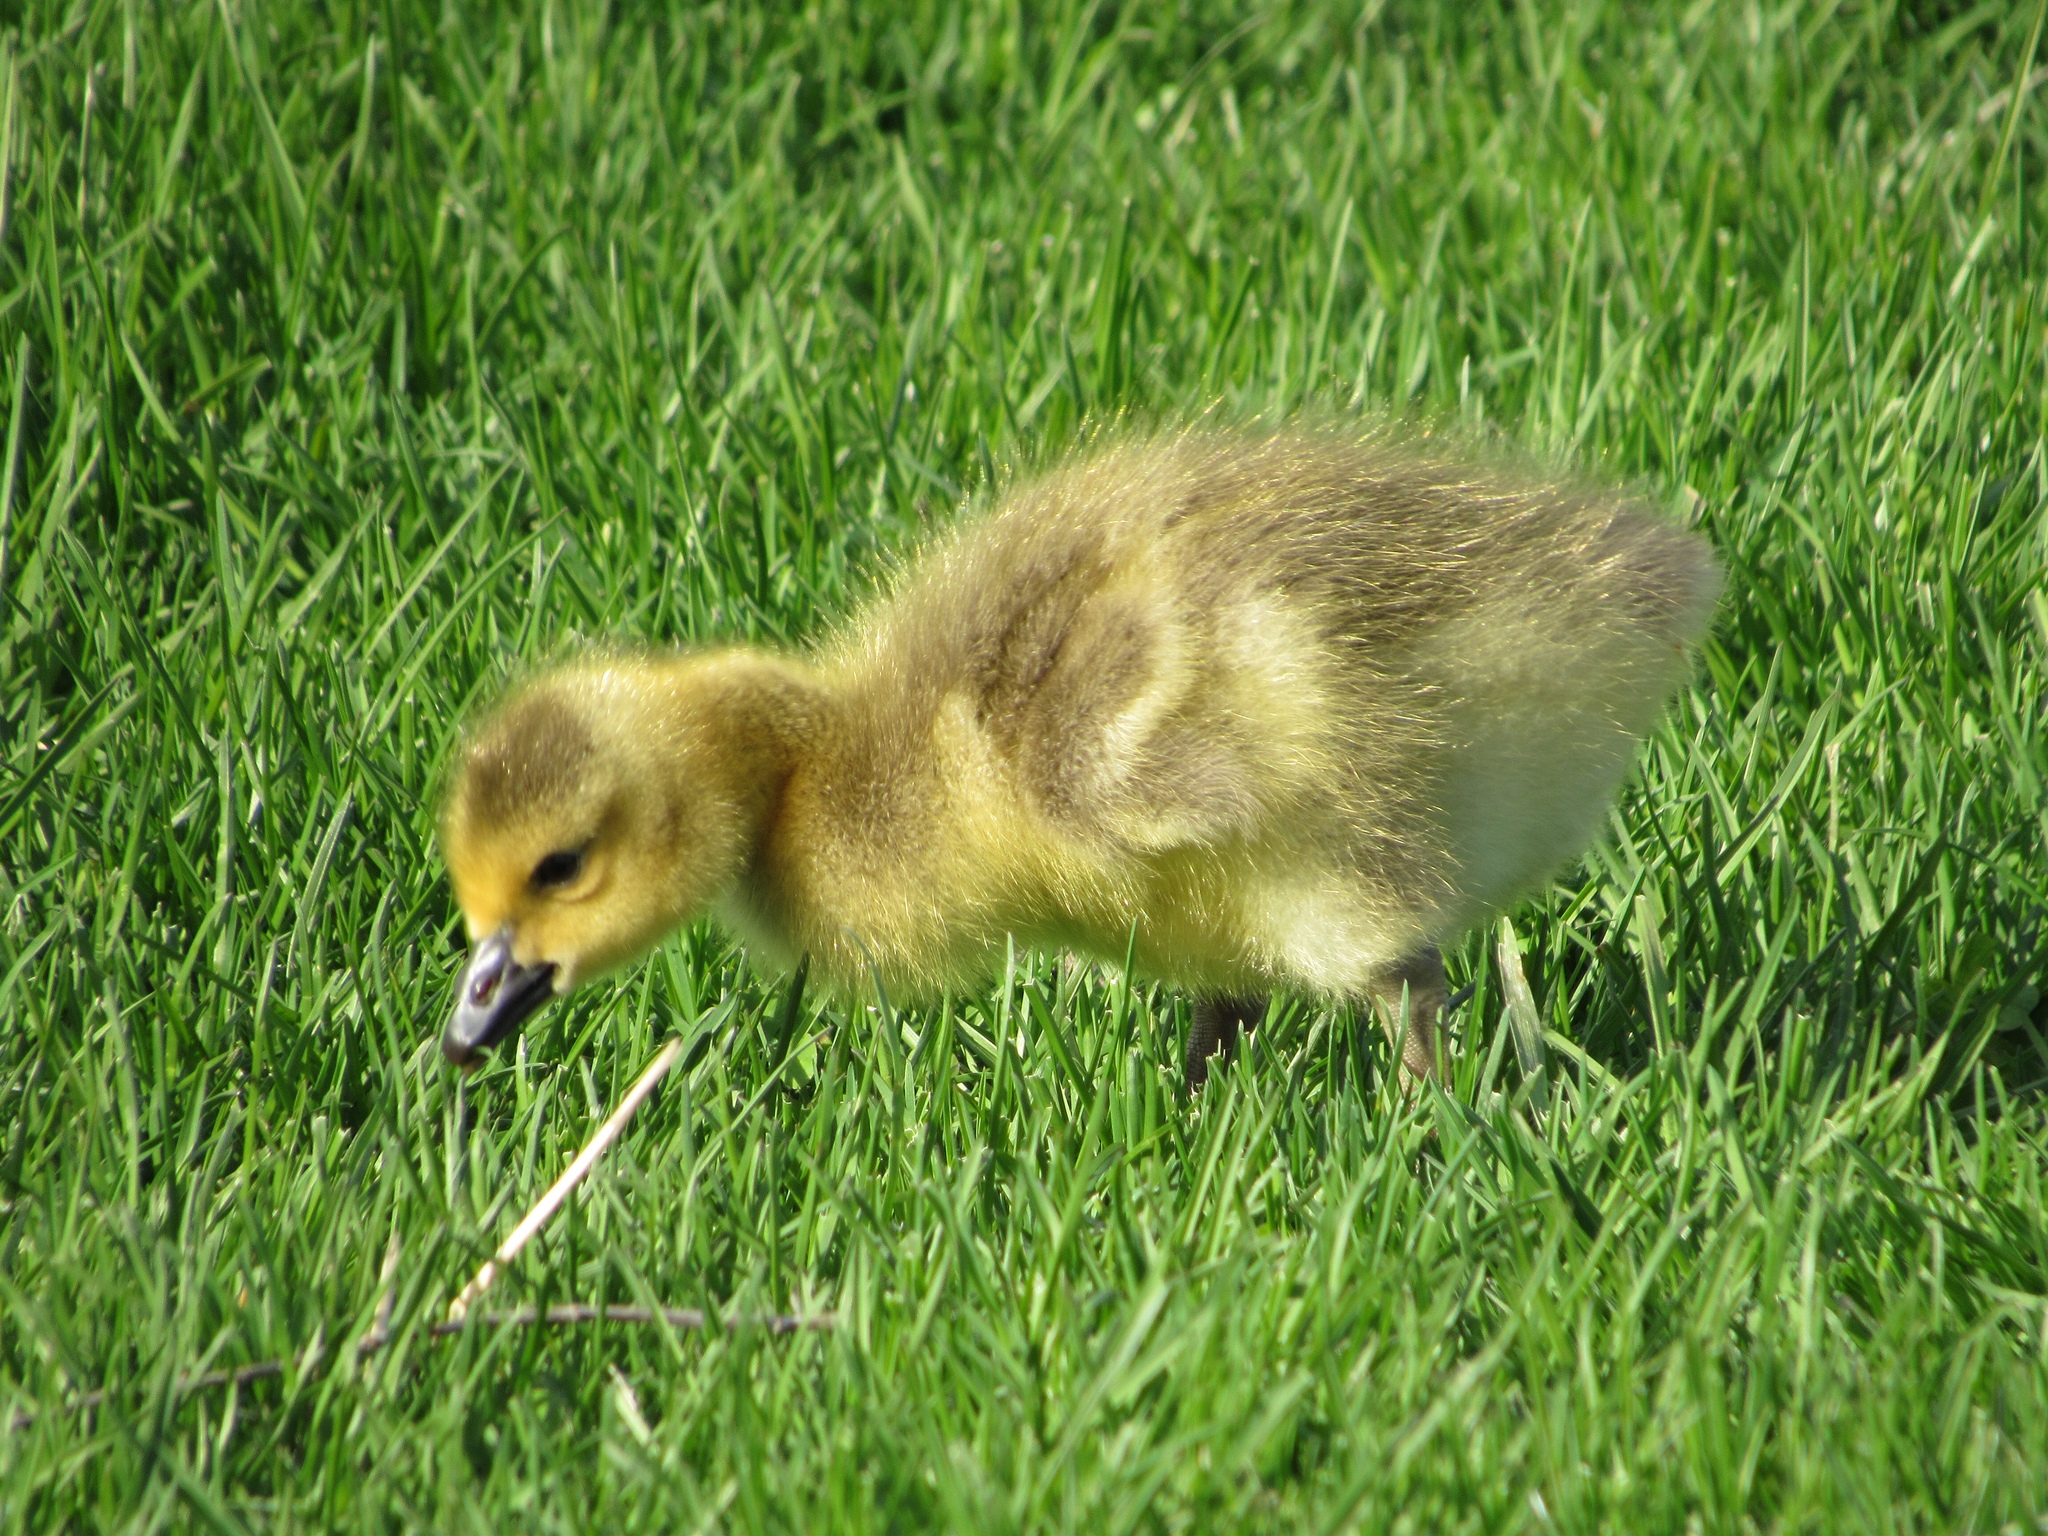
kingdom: Animalia
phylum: Chordata
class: Aves
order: Anseriformes
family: Anatidae
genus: Branta
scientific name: Branta canadensis
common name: Canada goose
